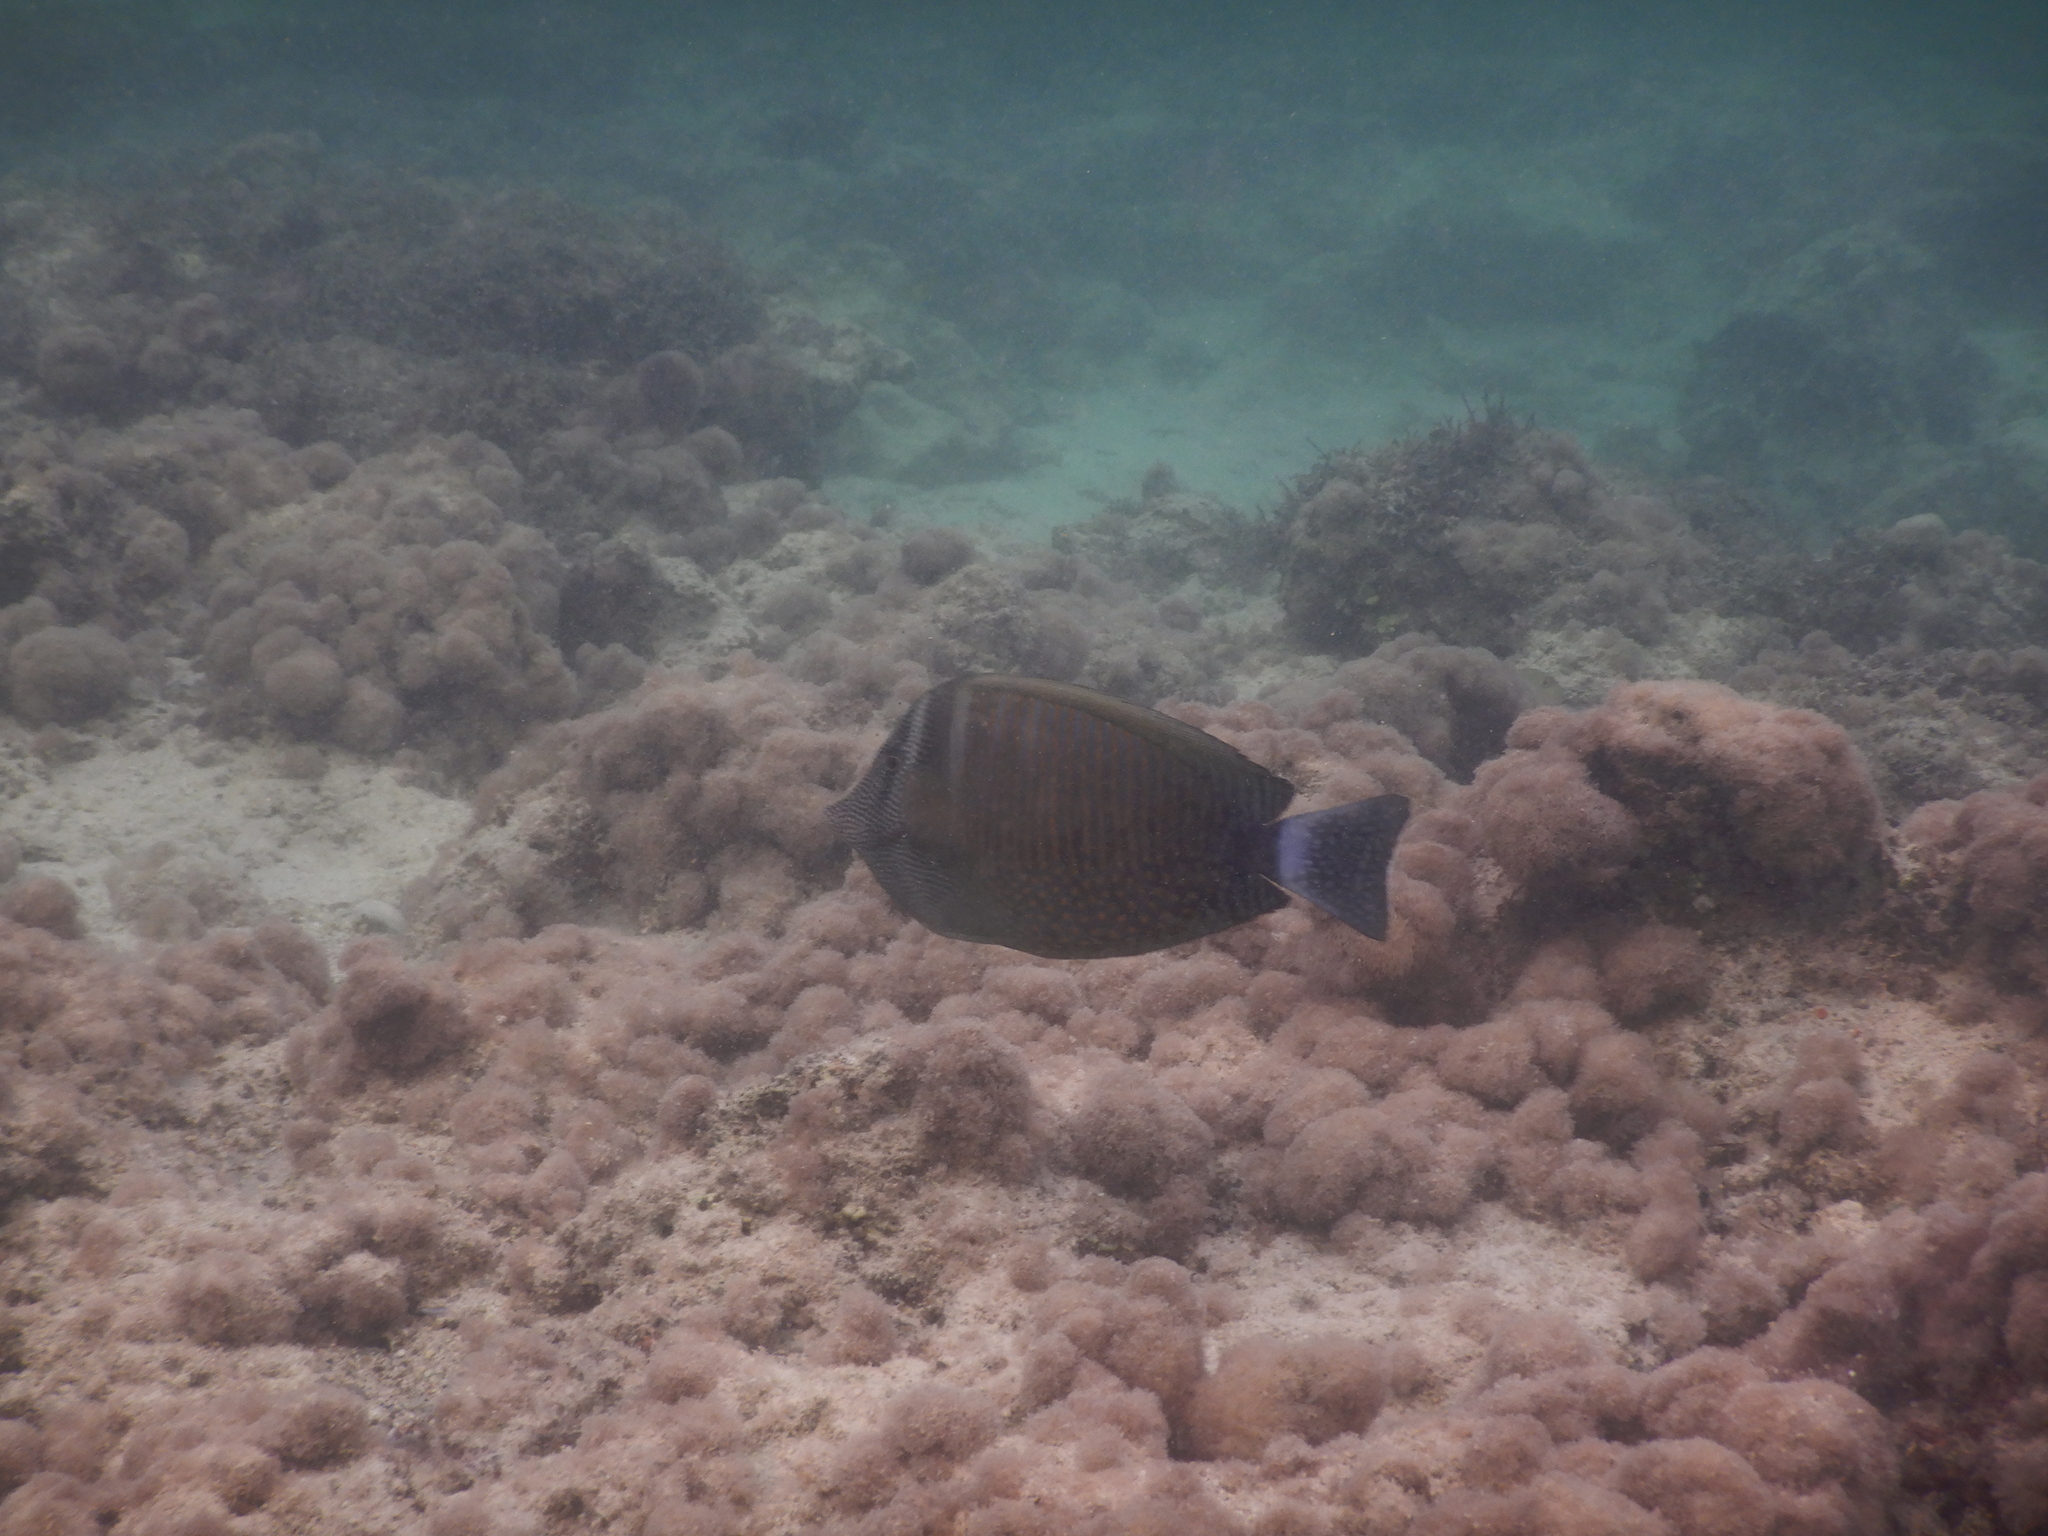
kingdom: Animalia
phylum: Chordata
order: Perciformes
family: Acanthuridae
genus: Zebrasoma
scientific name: Zebrasoma desjardinii
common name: Desjardin's sailfin tang
